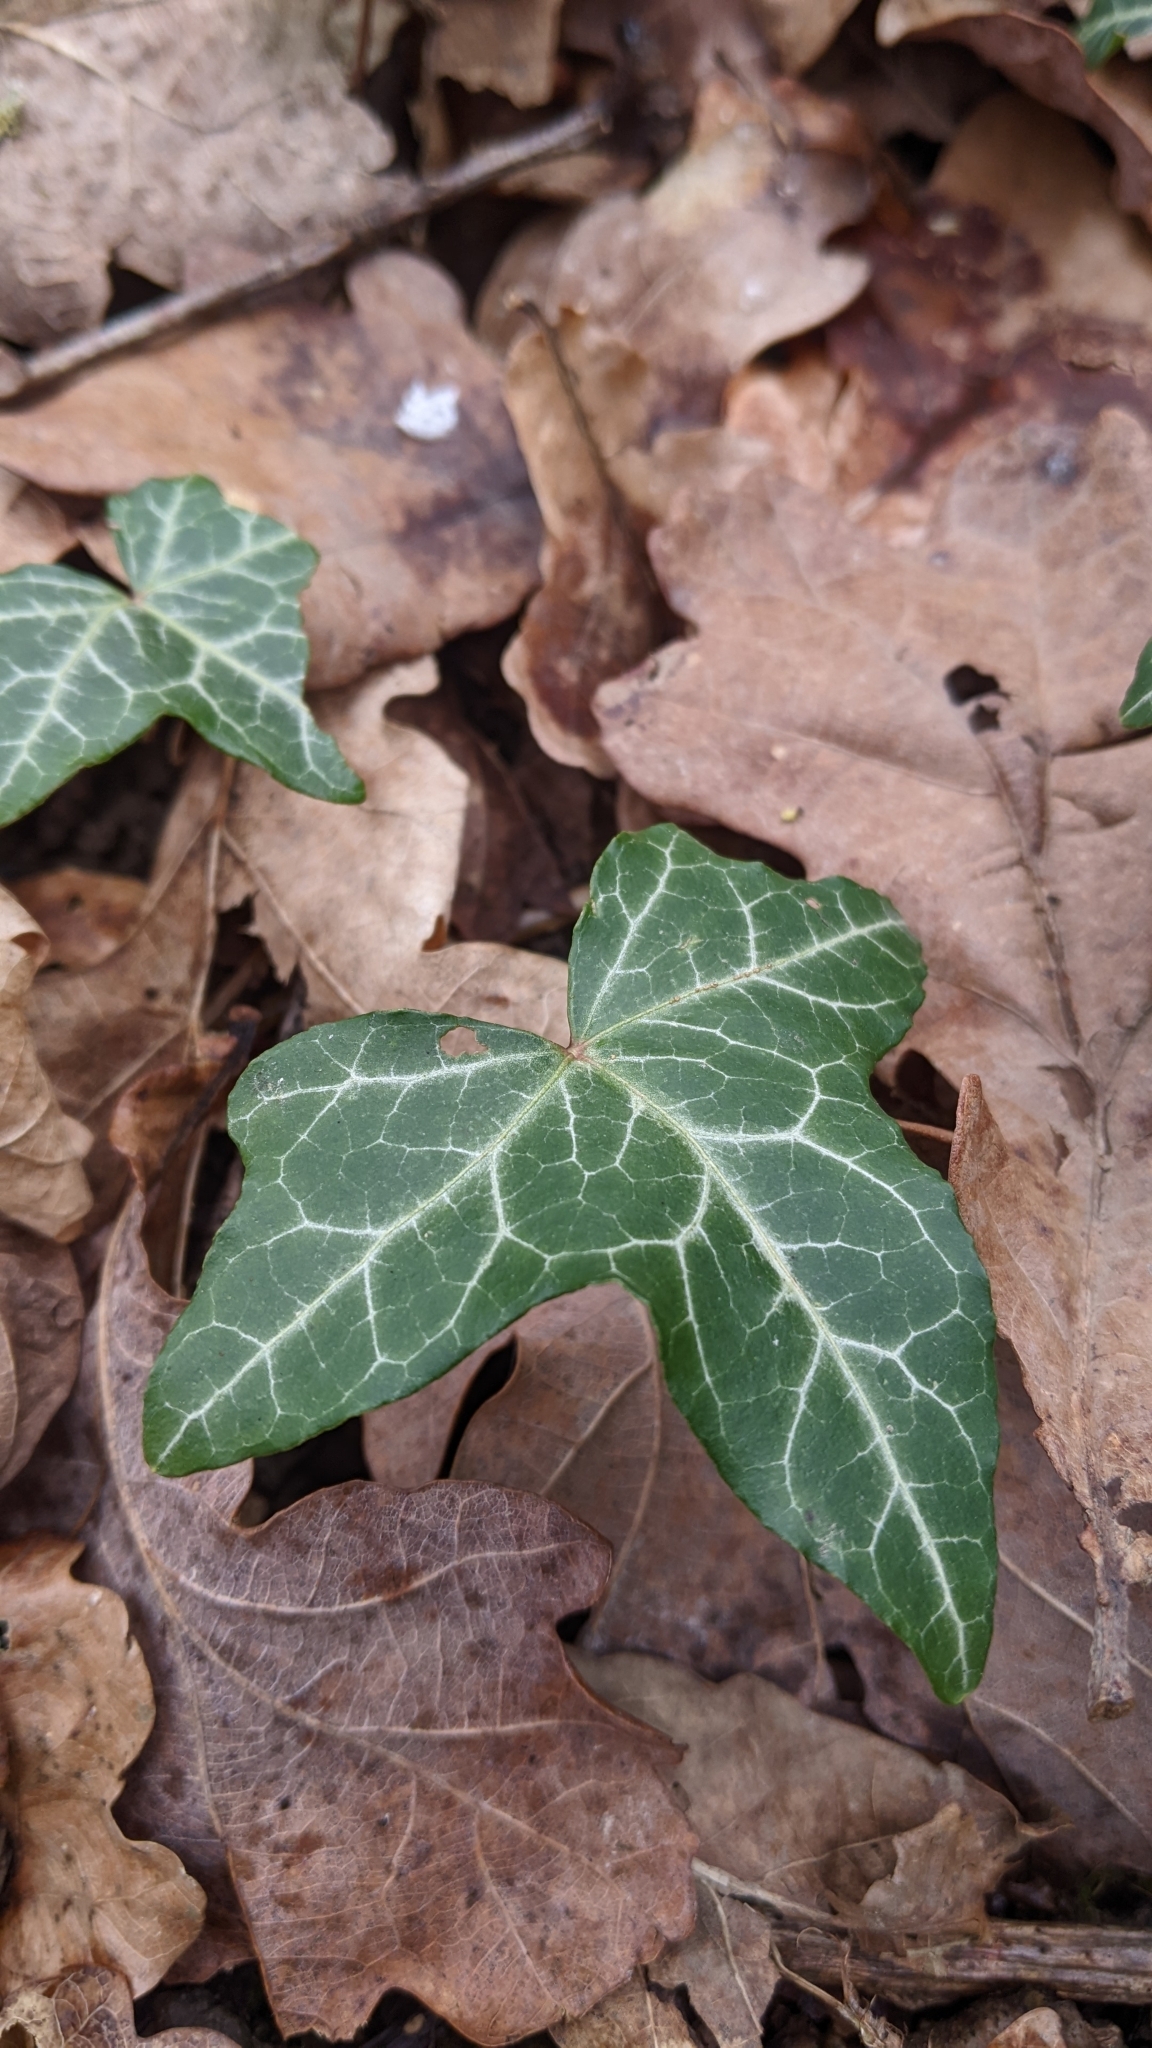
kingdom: Plantae
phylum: Tracheophyta
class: Magnoliopsida
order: Apiales
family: Araliaceae
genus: Hedera
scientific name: Hedera helix
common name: Ivy
